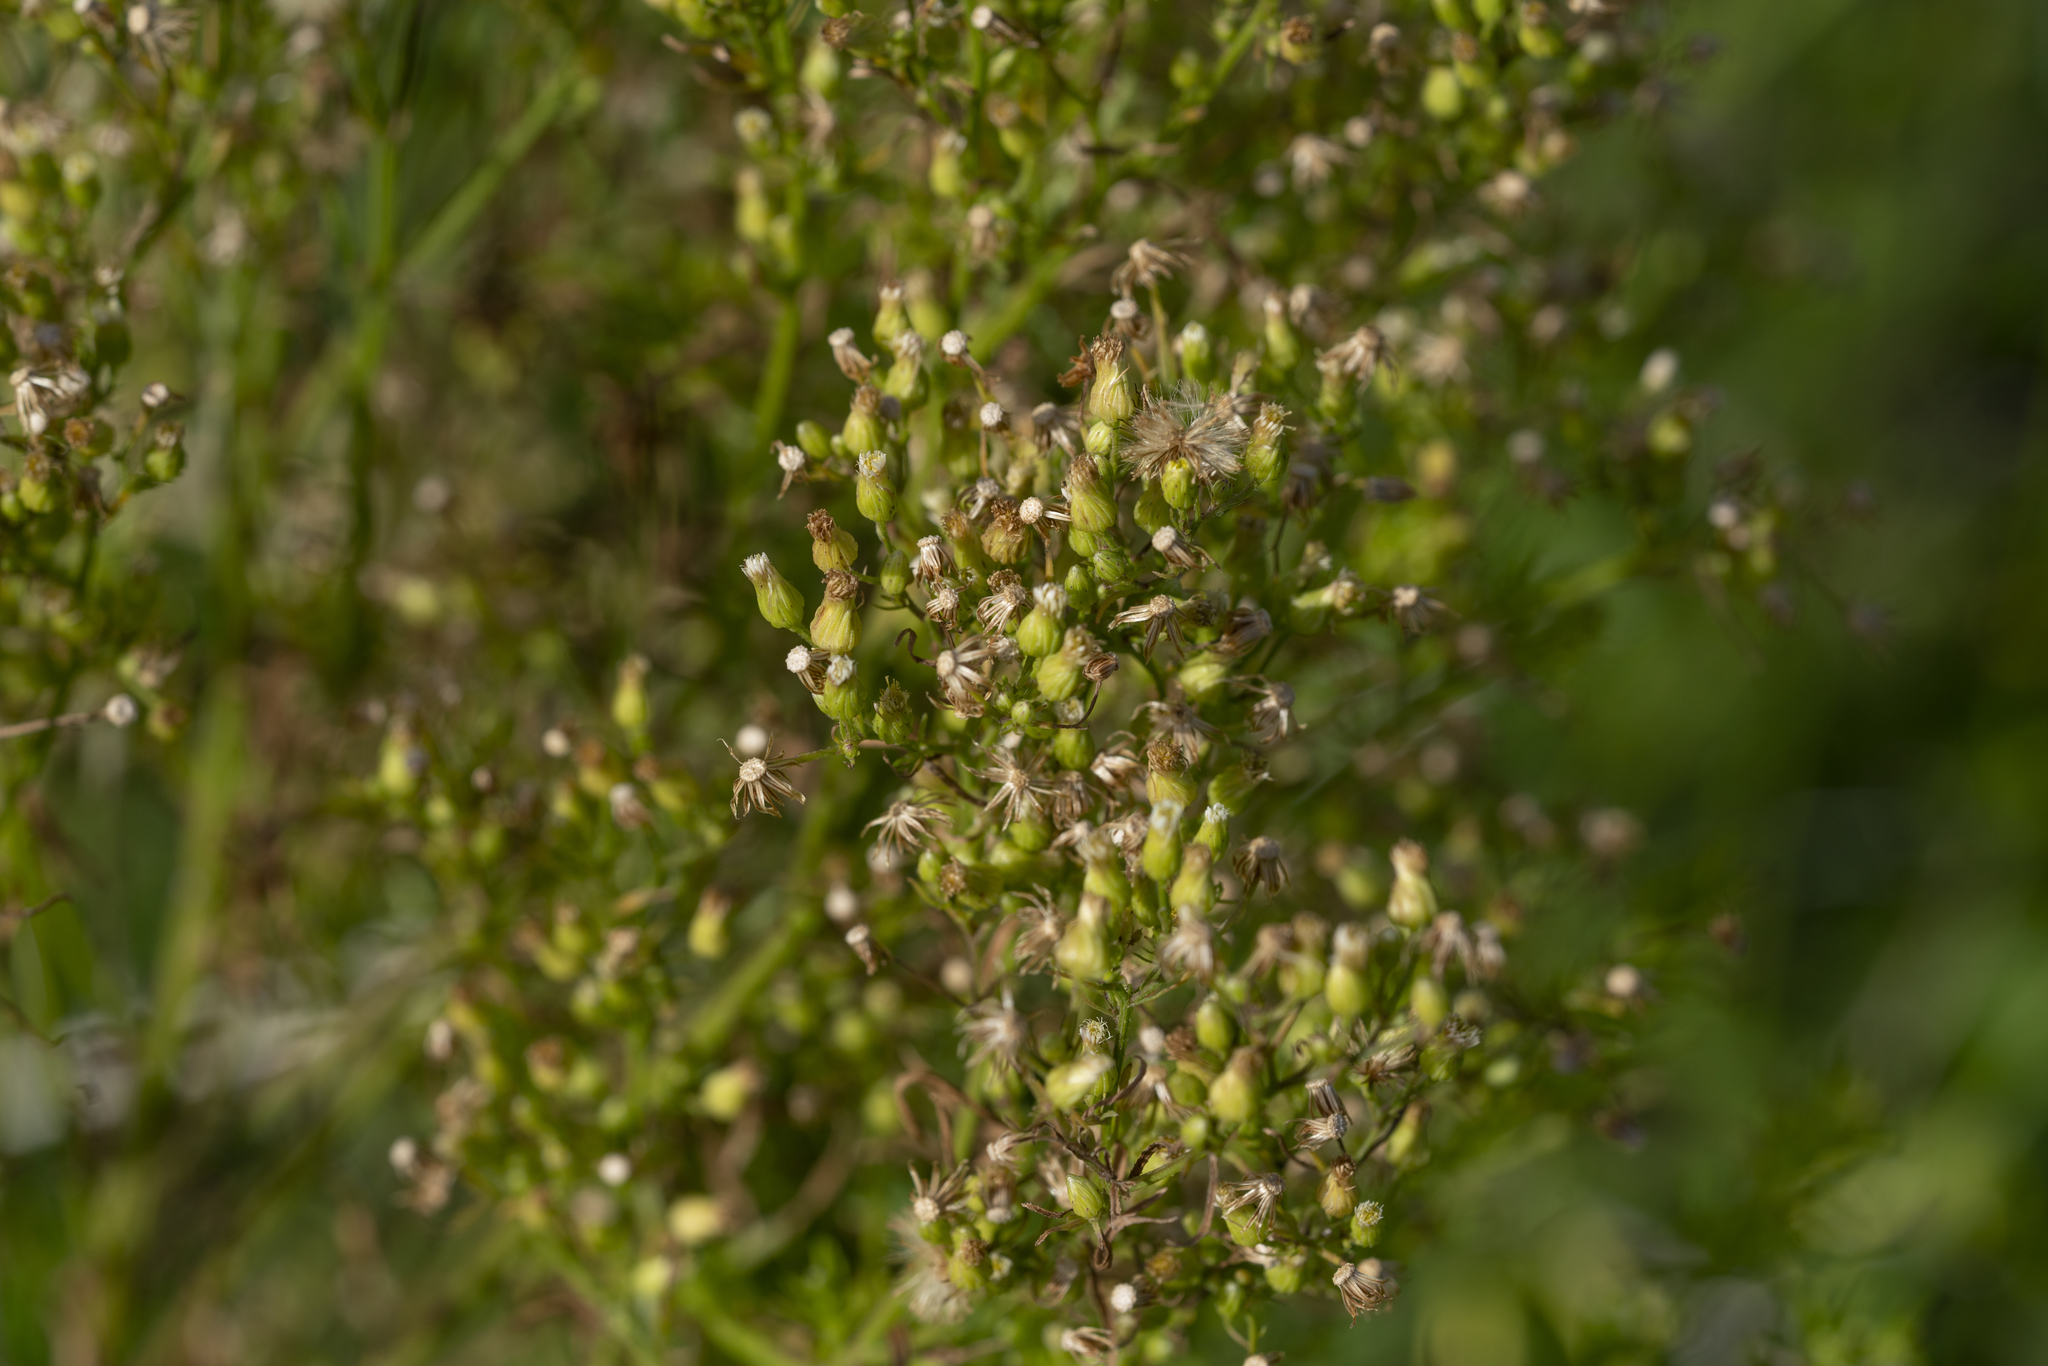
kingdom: Plantae
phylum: Tracheophyta
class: Magnoliopsida
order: Asterales
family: Asteraceae
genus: Erigeron
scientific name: Erigeron canadensis
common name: Canadian fleabane
